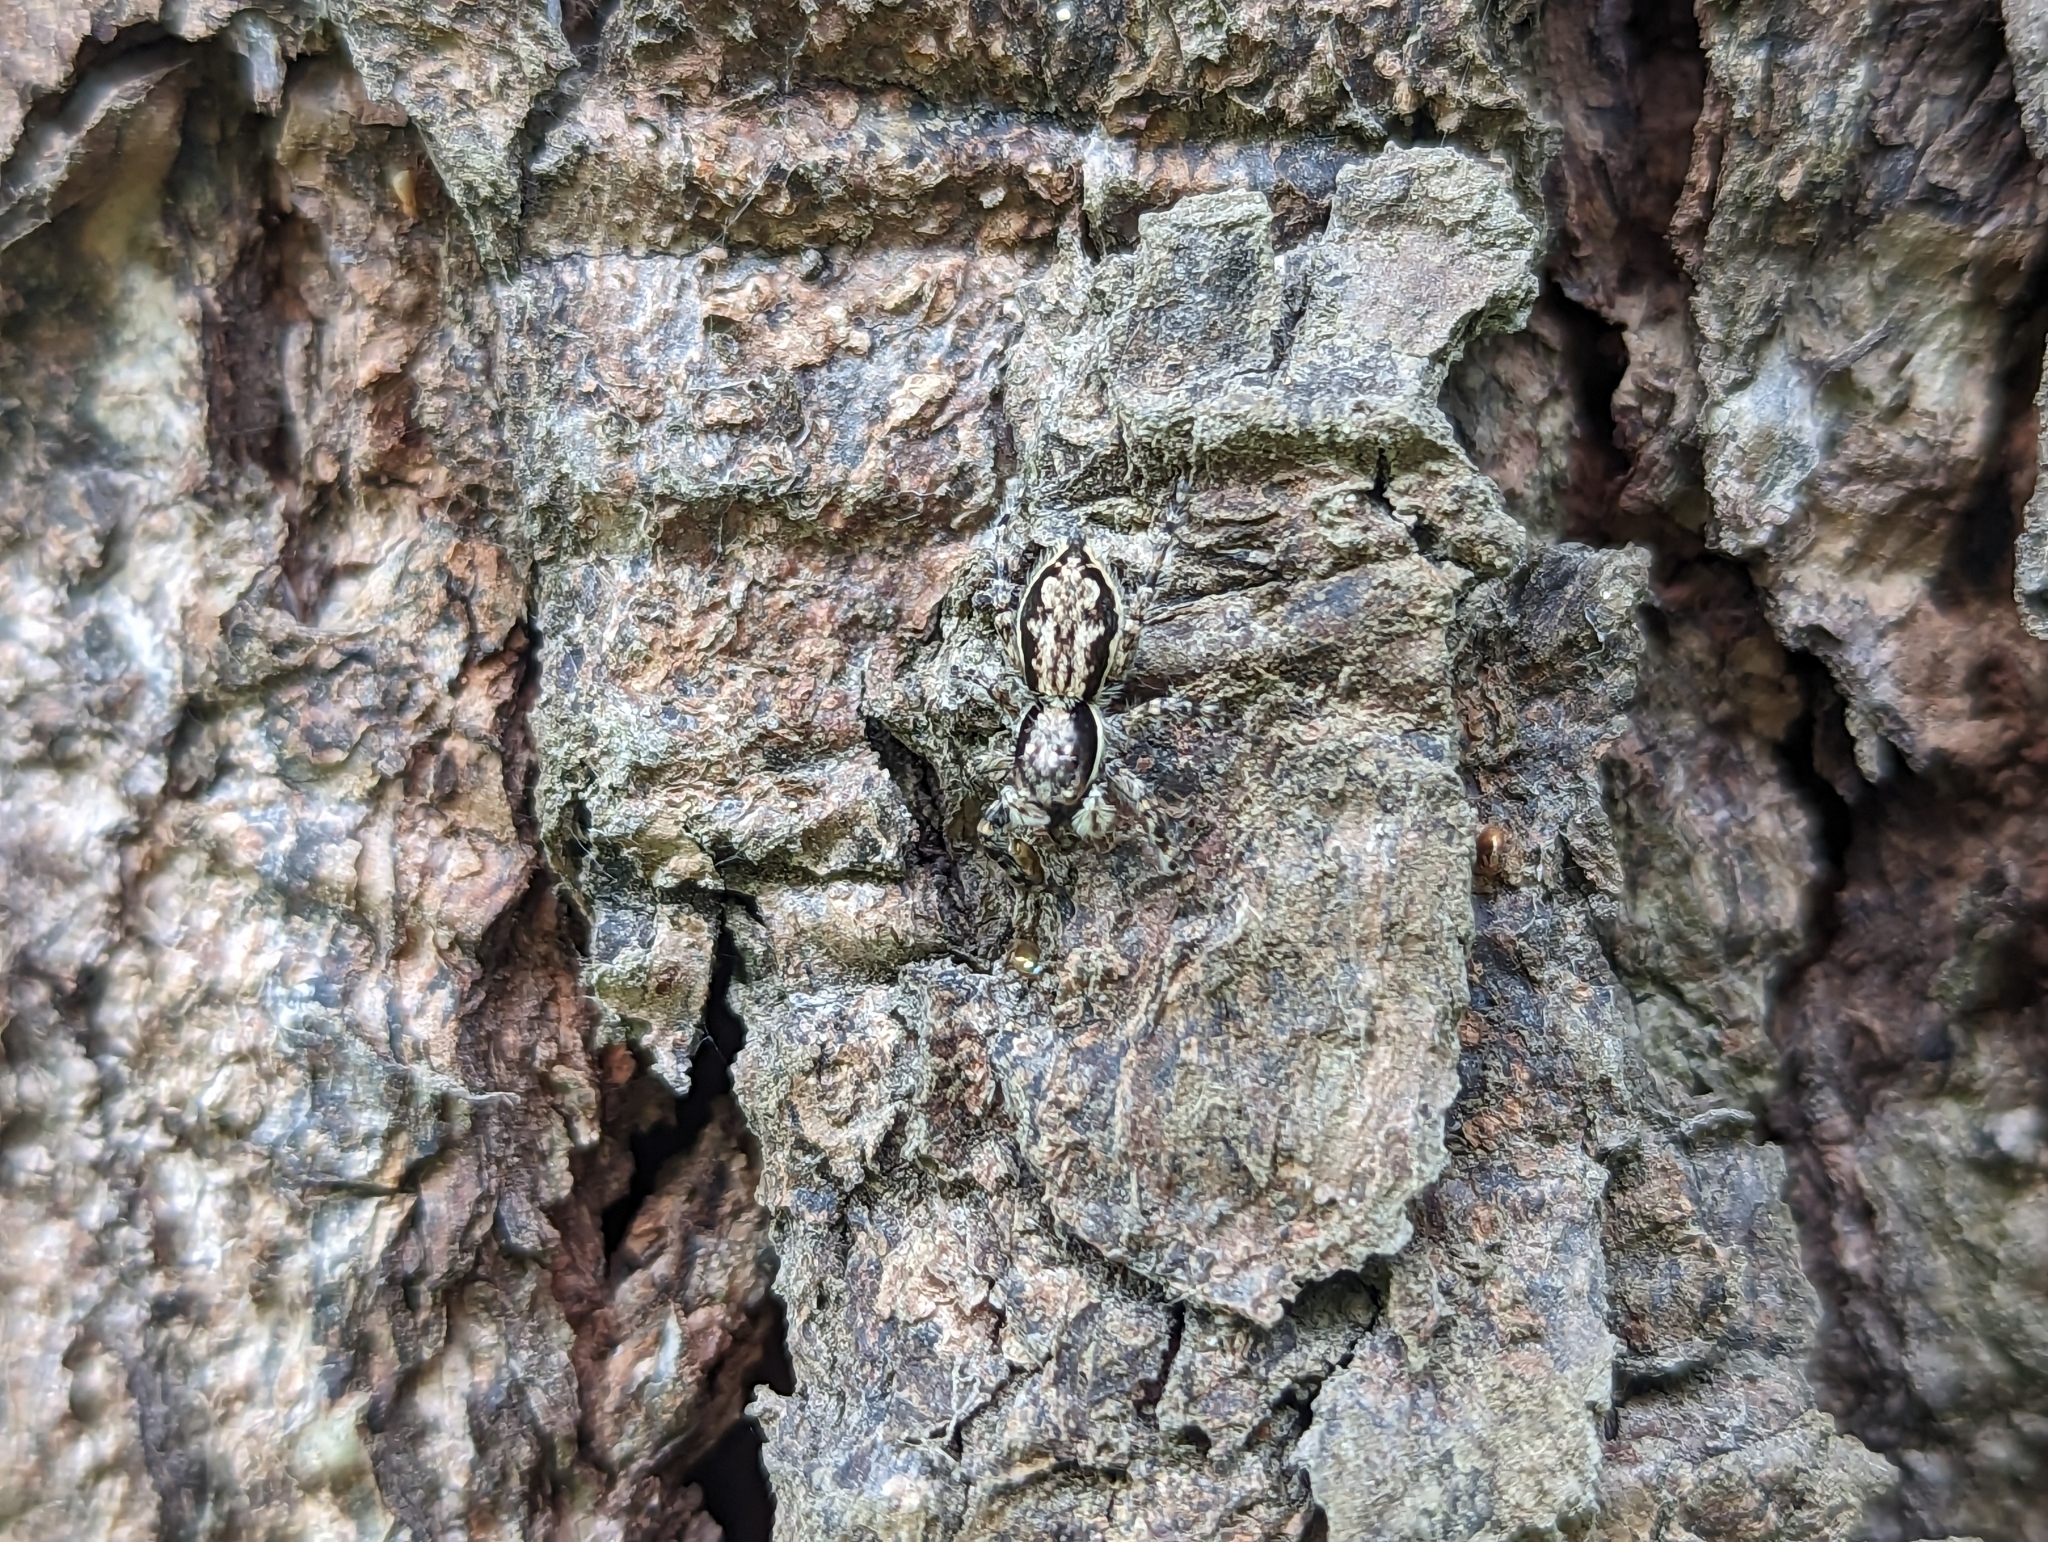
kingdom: Animalia
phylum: Arthropoda
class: Arachnida
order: Araneae
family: Salticidae
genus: Menemerus
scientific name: Menemerus bivittatus
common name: Gray wall jumper
